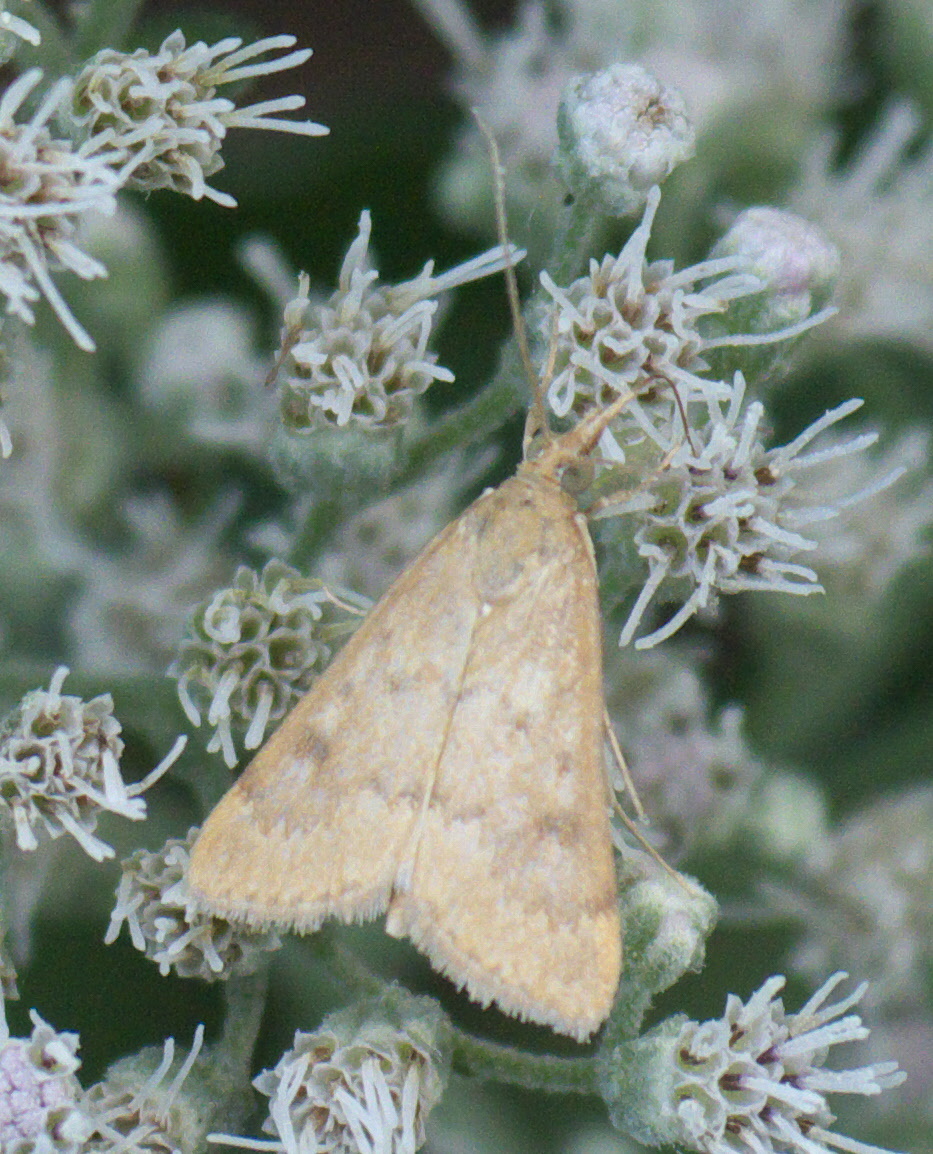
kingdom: Animalia
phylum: Arthropoda
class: Insecta
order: Lepidoptera
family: Crambidae
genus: Achyra
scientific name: Achyra rantalis
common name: Garden webworm
